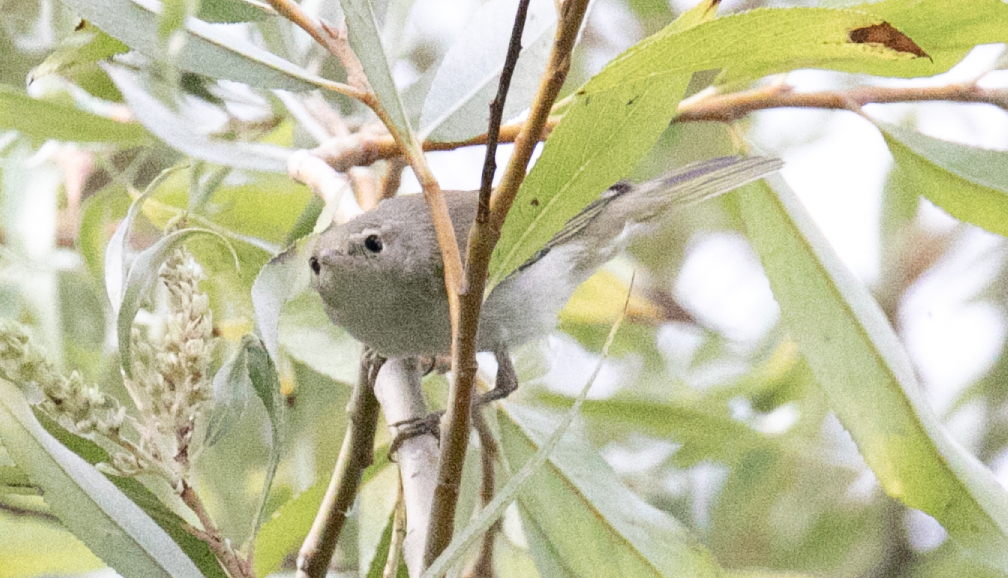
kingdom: Animalia
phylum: Chordata
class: Aves
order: Passeriformes
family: Phylloscopidae
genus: Phylloscopus
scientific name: Phylloscopus bonelli
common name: Western bonelli's warbler
